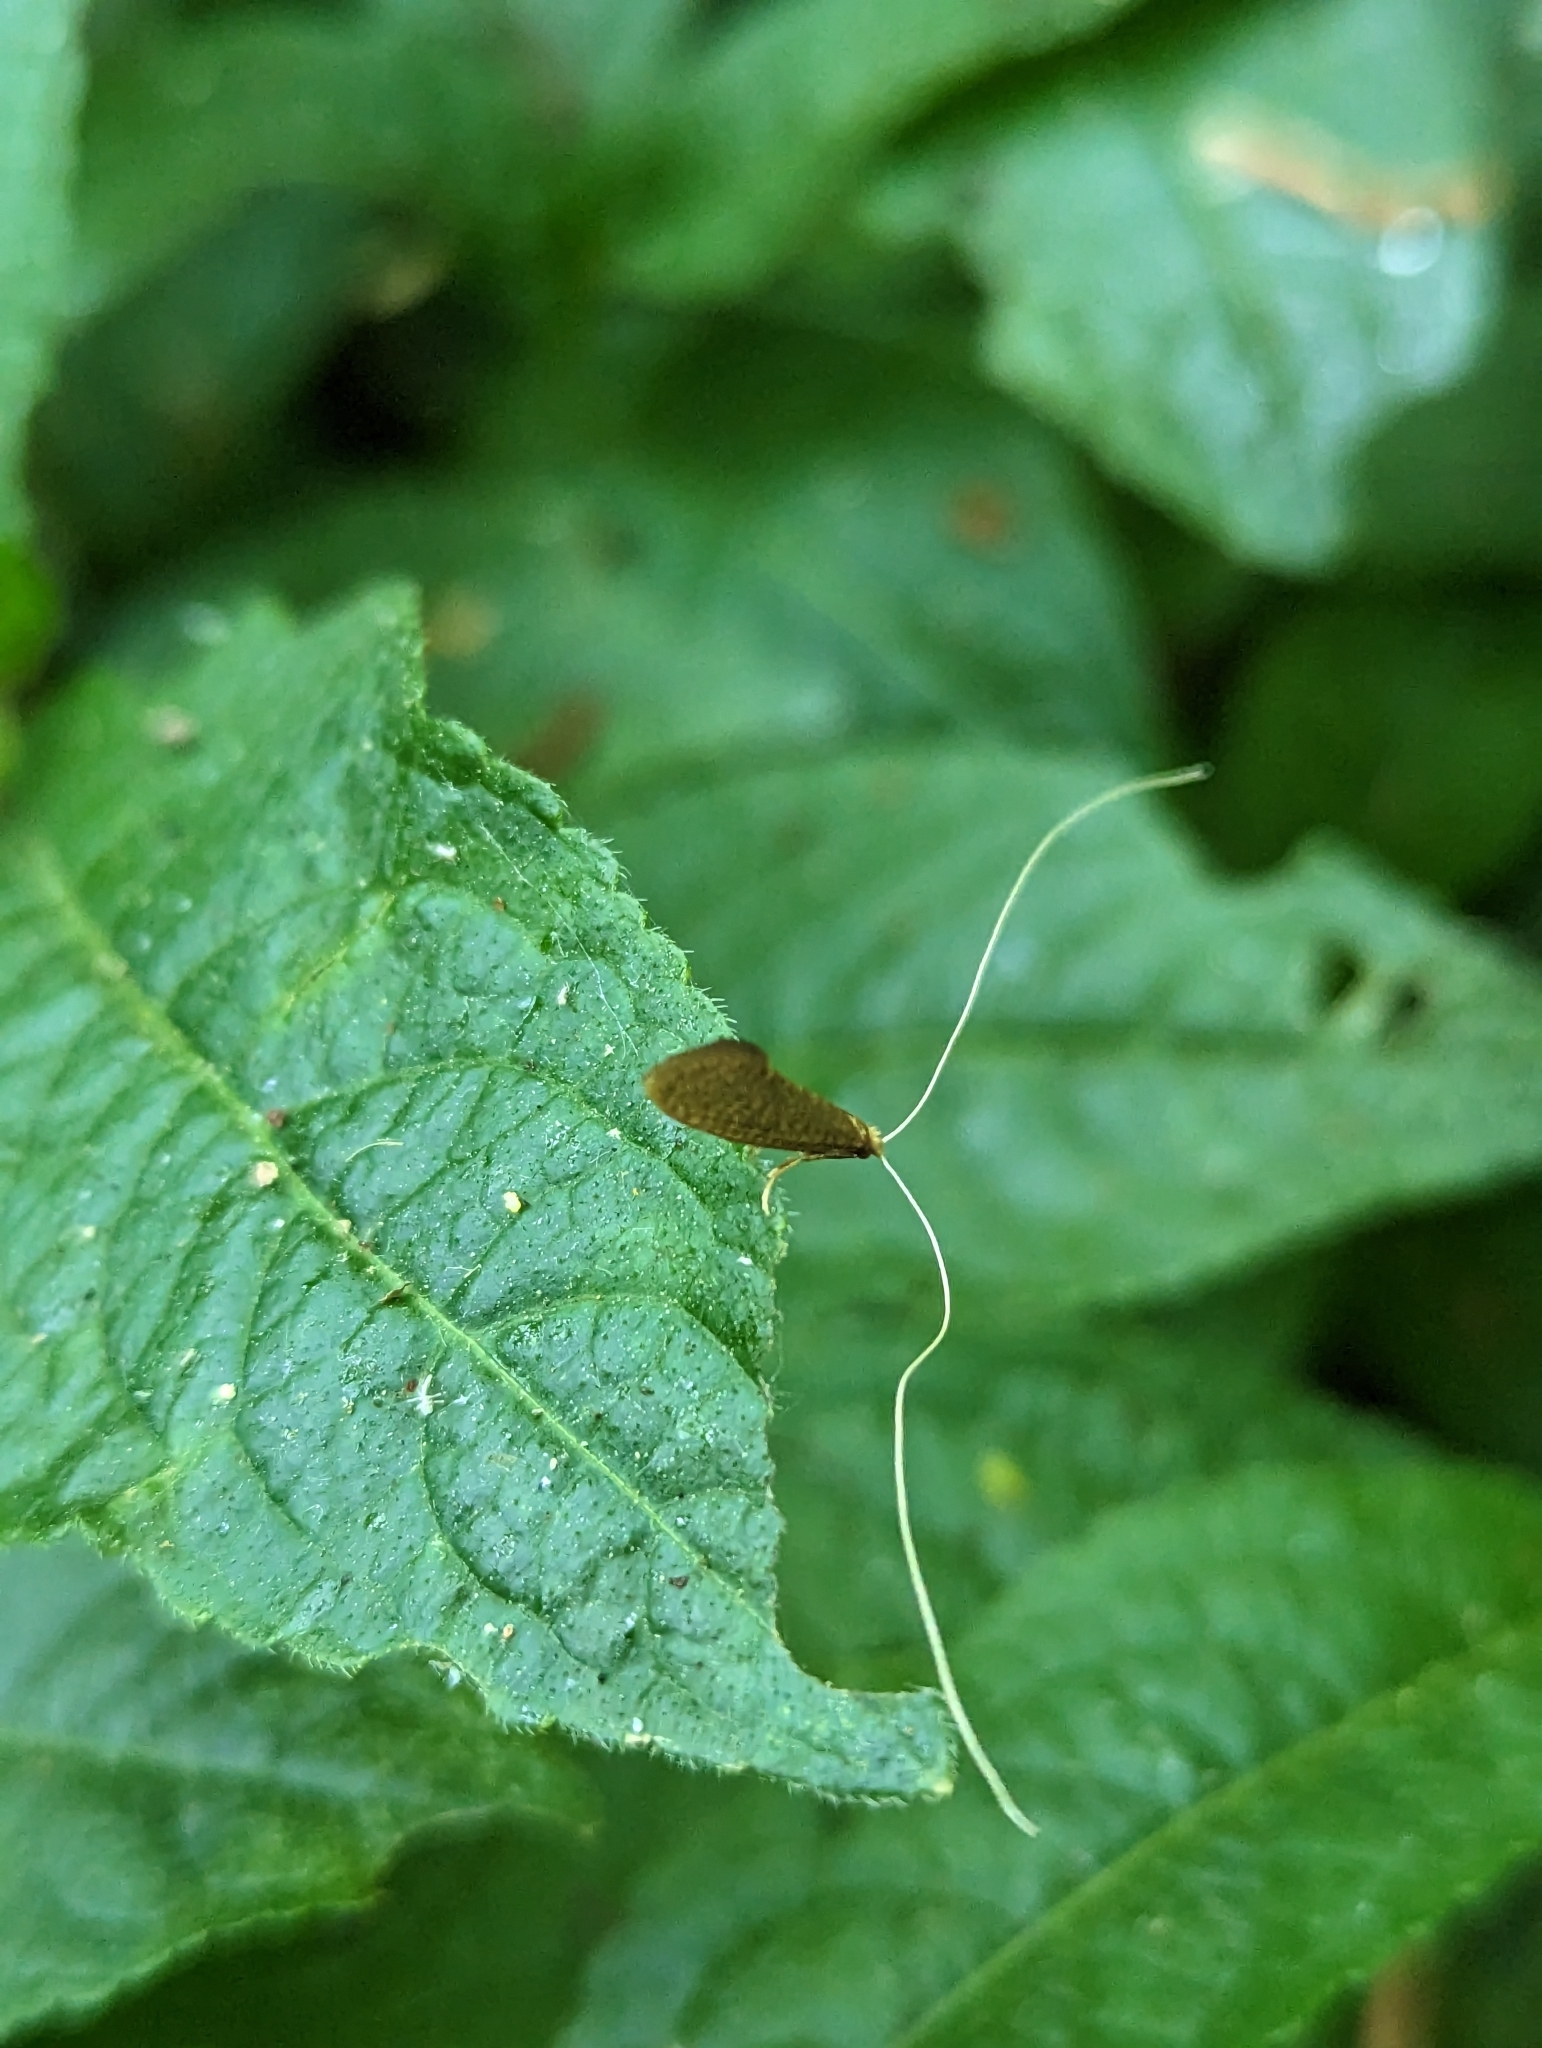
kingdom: Animalia
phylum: Arthropoda
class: Insecta
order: Lepidoptera
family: Adelidae
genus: Nematopogon
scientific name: Nematopogon swammerdamella
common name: Large long-horn
